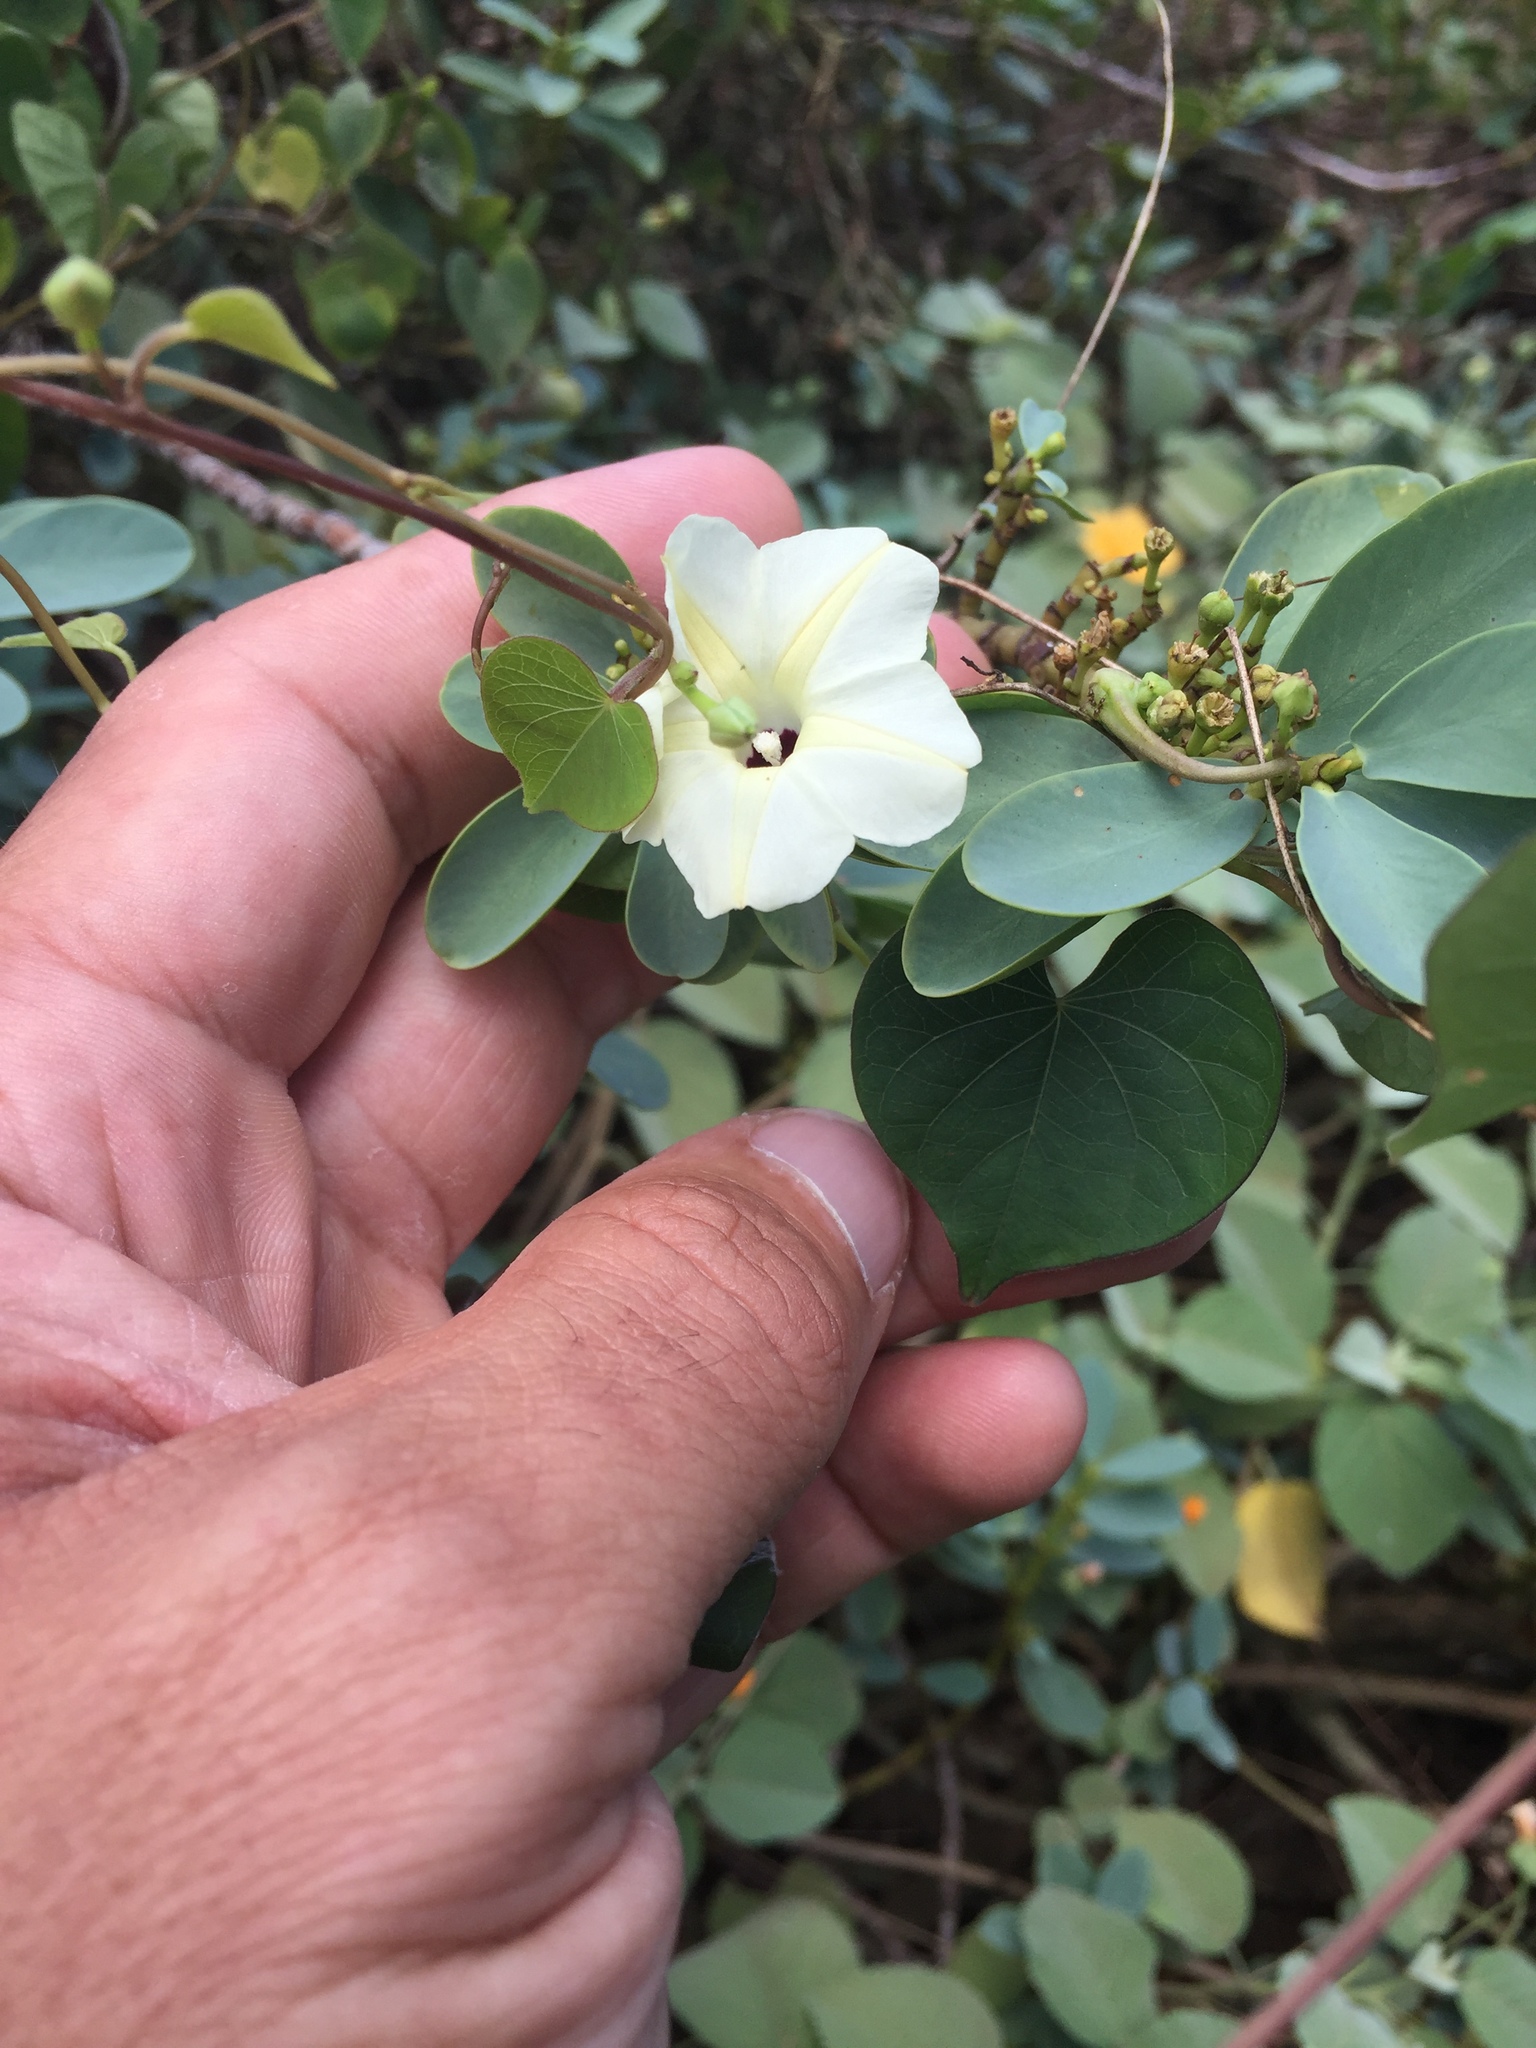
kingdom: Plantae
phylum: Tracheophyta
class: Magnoliopsida
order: Solanales
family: Convolvulaceae
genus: Ipomoea
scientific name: Ipomoea obscura
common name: Obscure morning-glory
